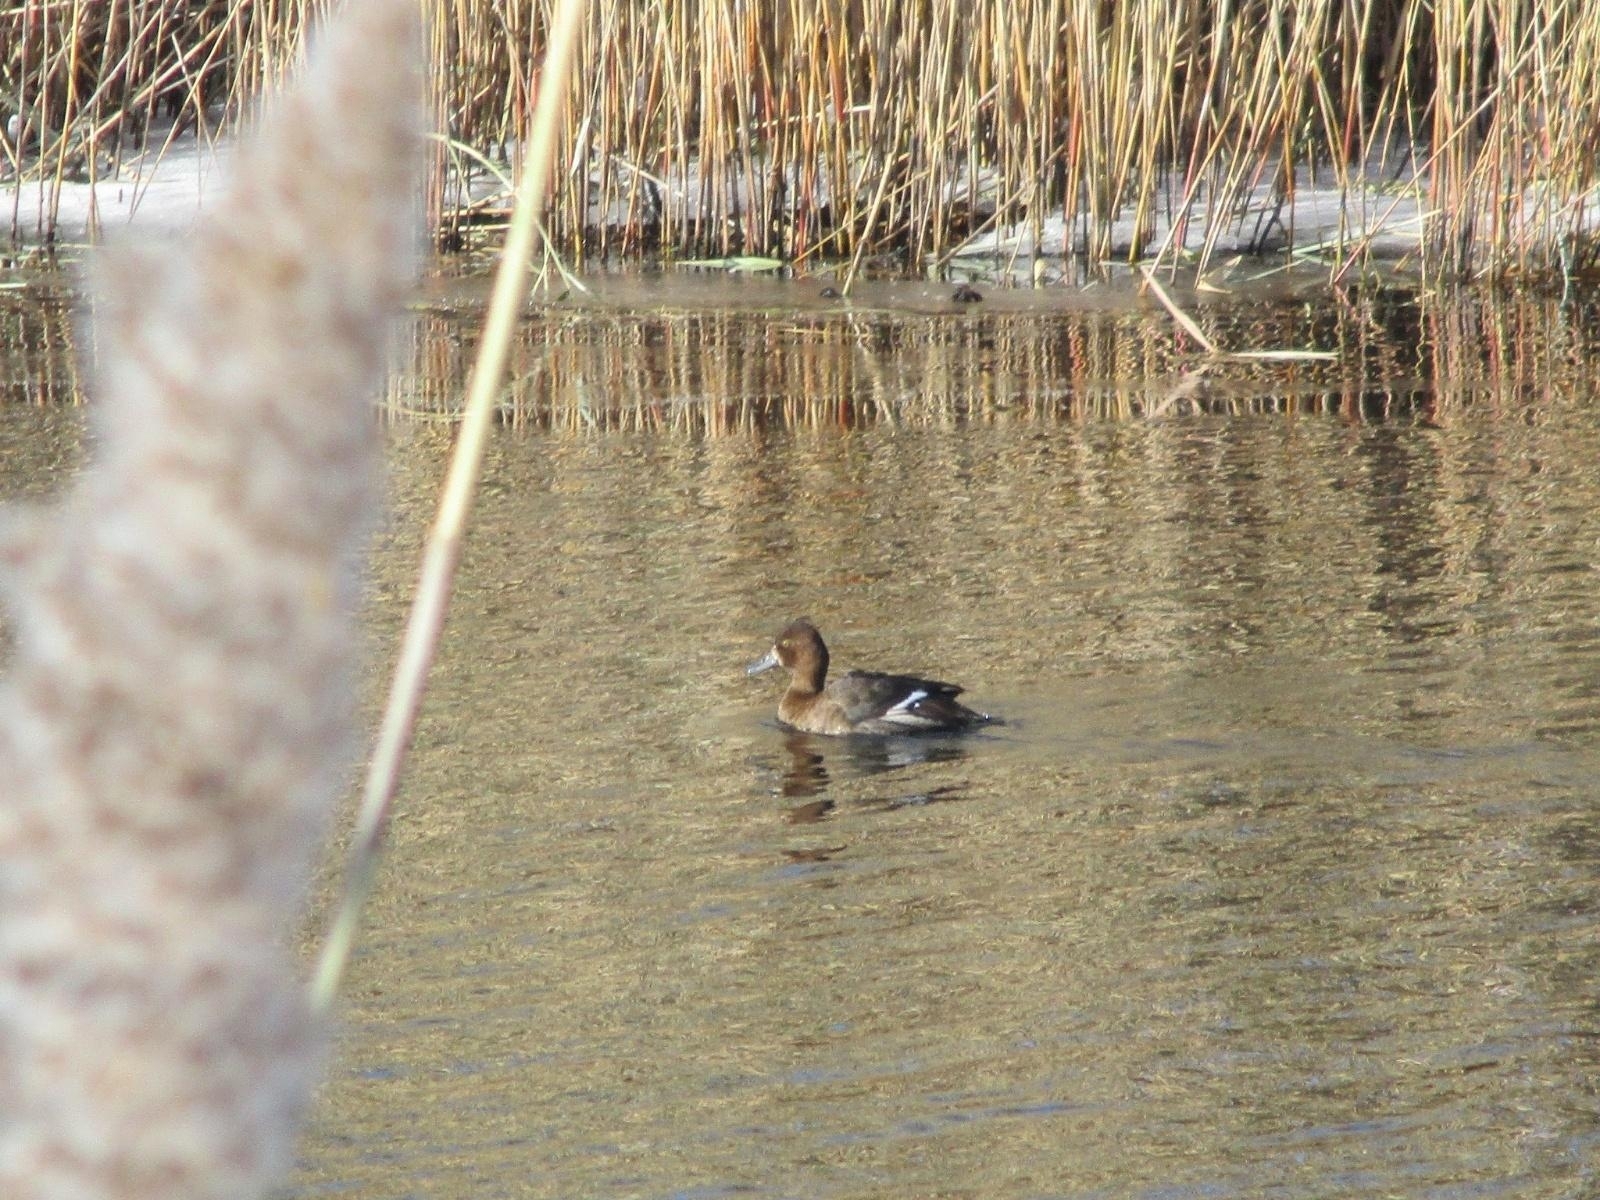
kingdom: Animalia
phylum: Chordata
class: Aves
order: Anseriformes
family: Anatidae
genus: Aythya
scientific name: Aythya affinis
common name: Lesser scaup
